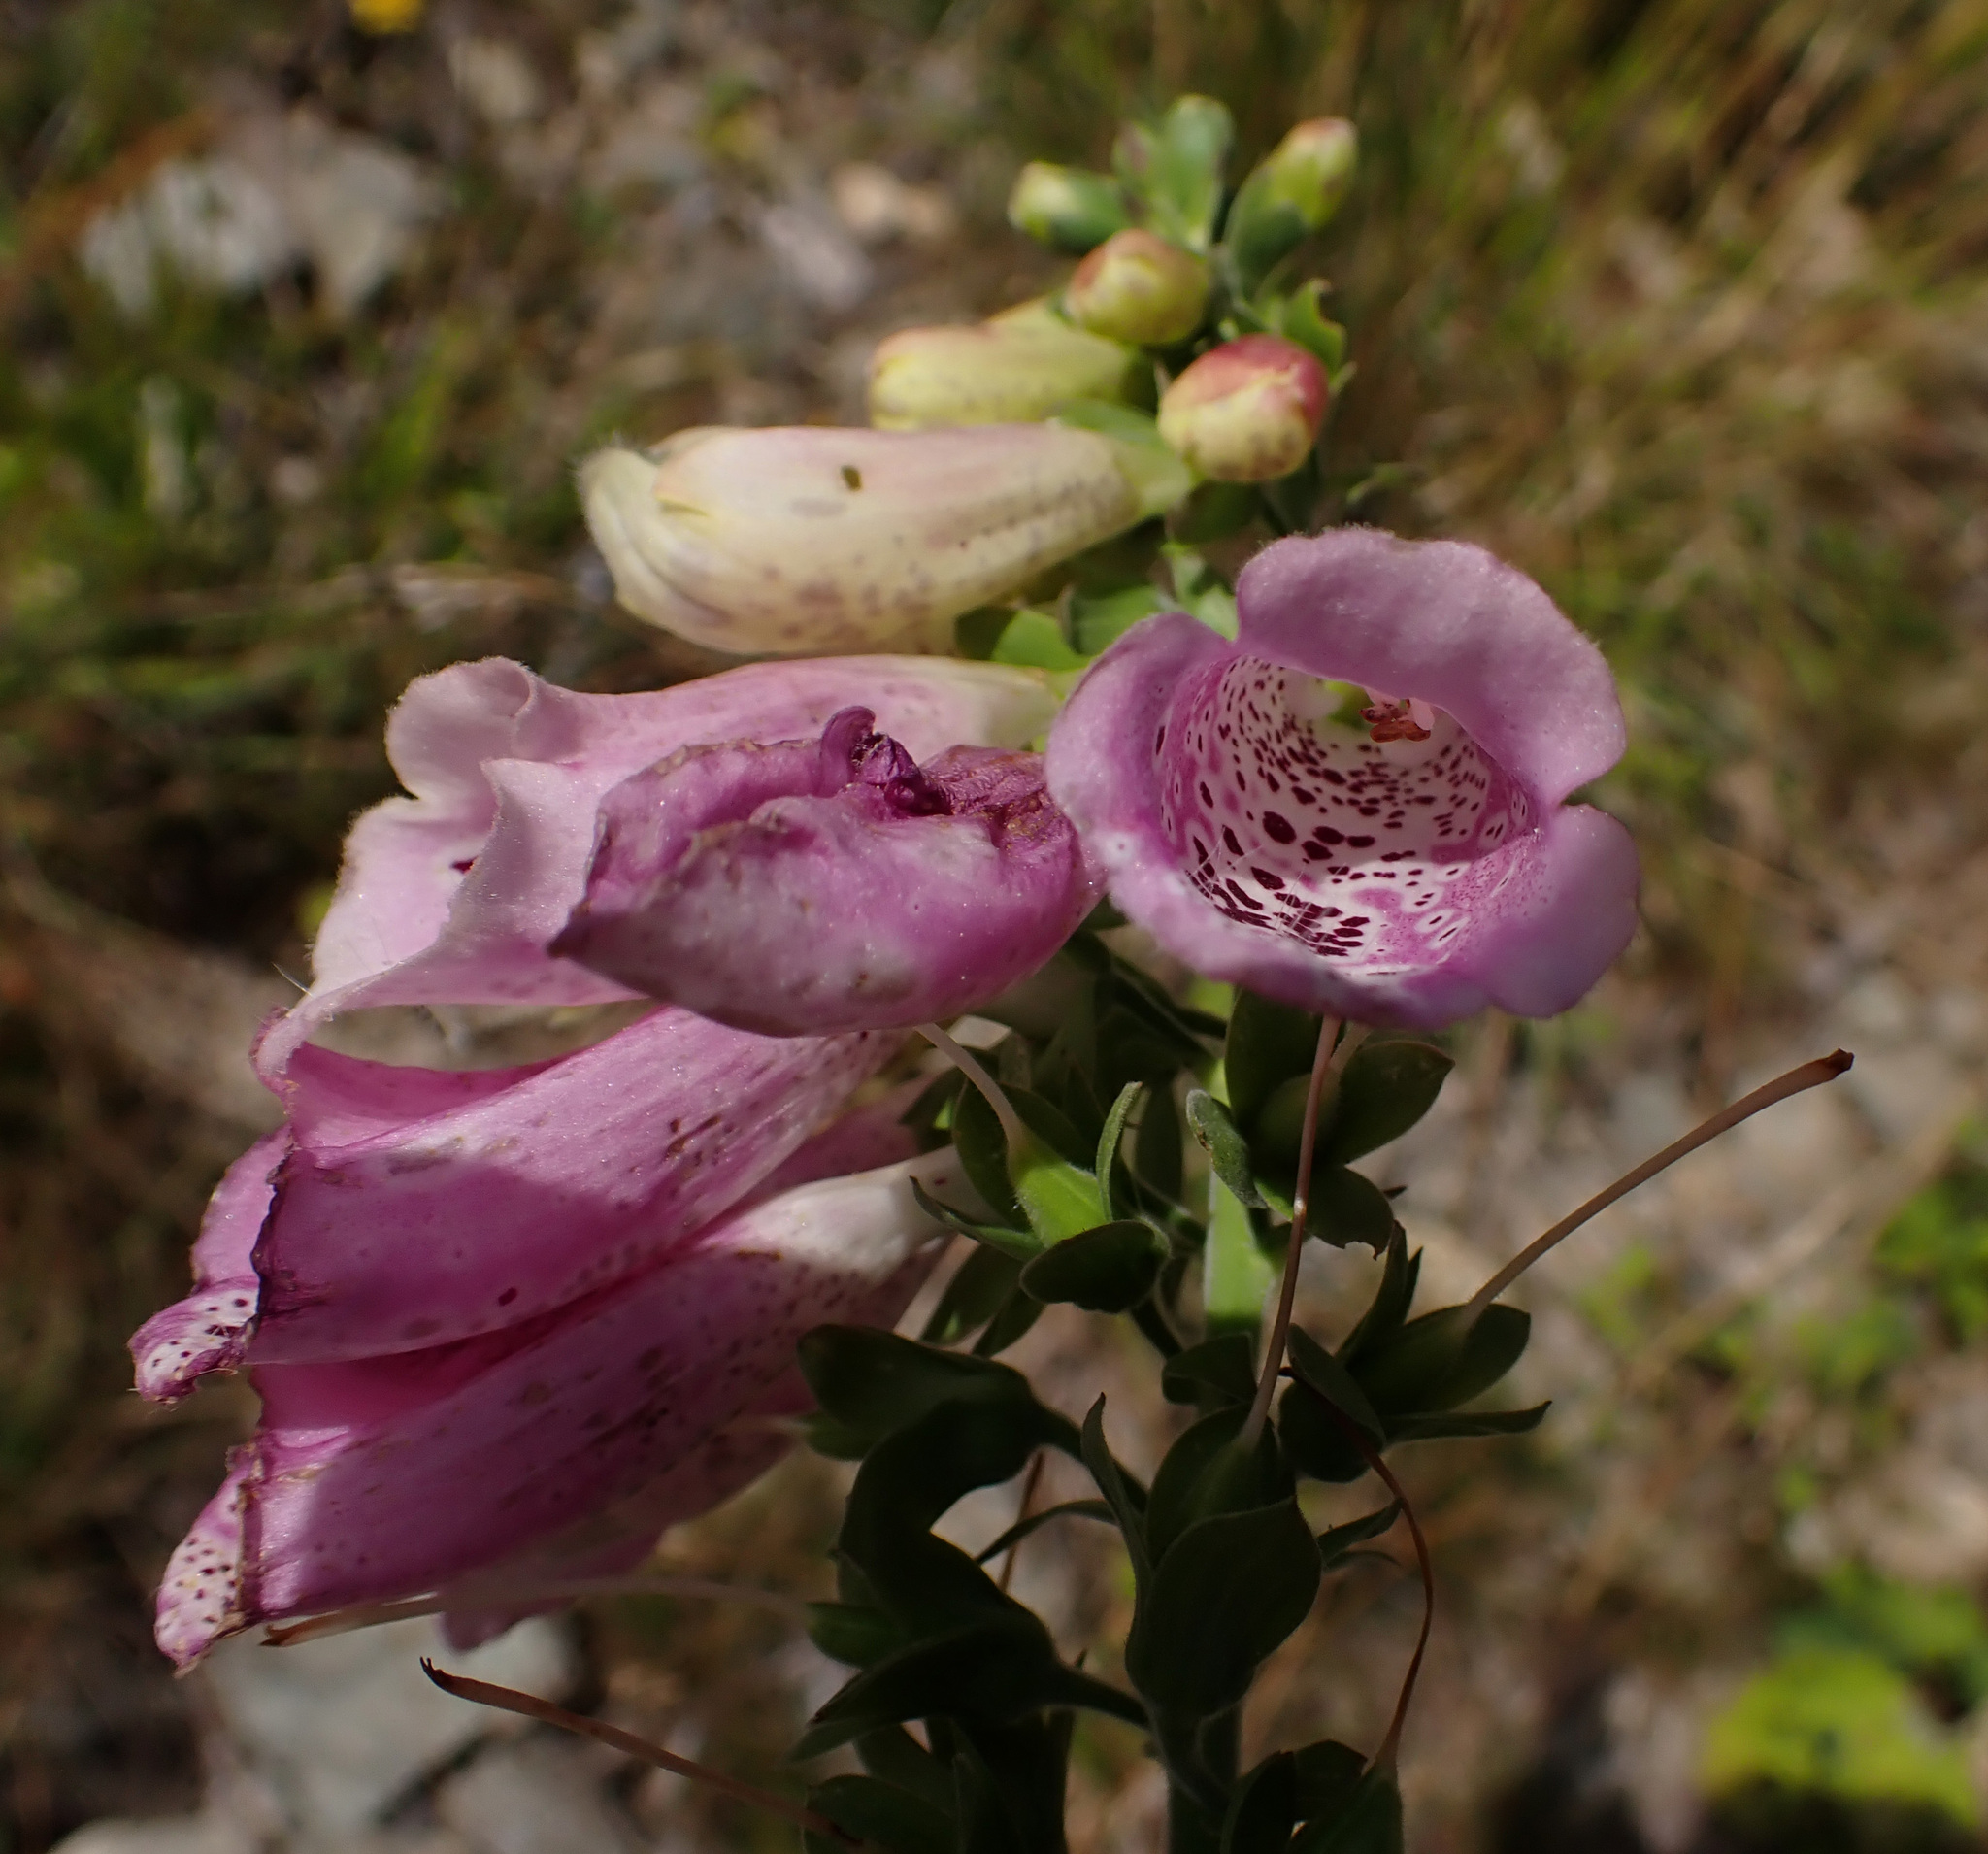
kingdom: Plantae
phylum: Tracheophyta
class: Magnoliopsida
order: Lamiales
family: Plantaginaceae
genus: Digitalis
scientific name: Digitalis purpurea
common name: Foxglove
